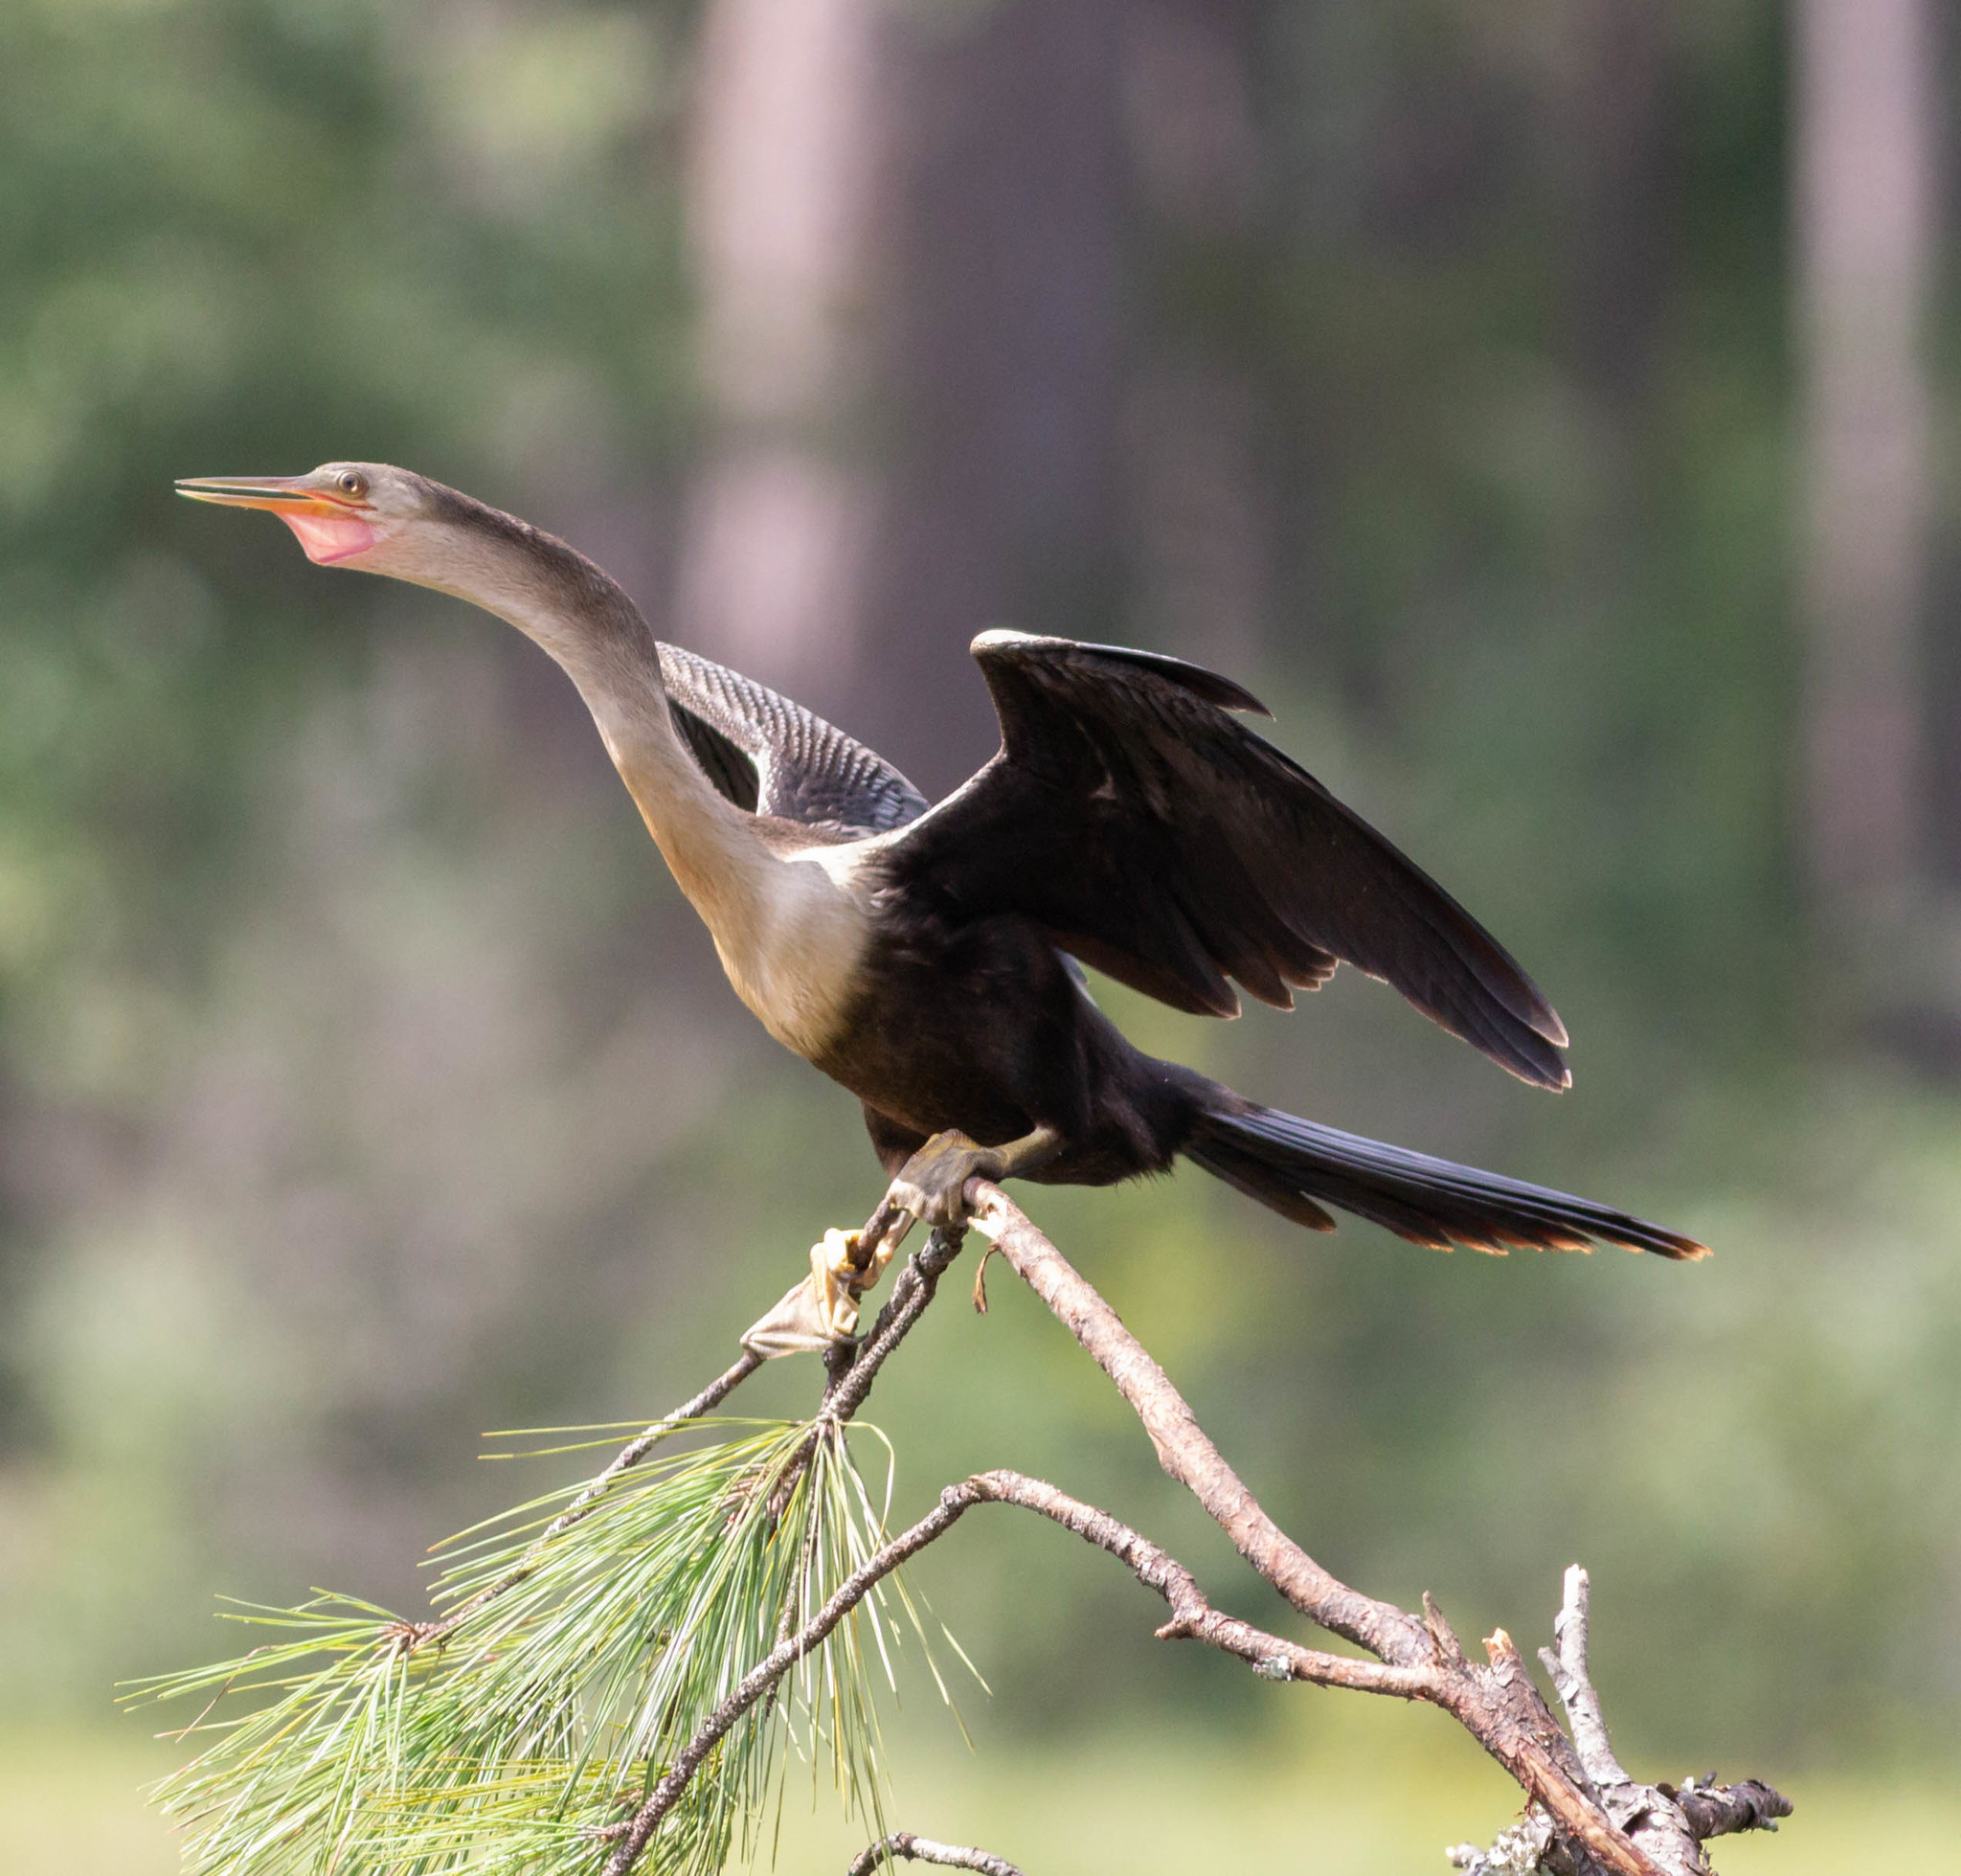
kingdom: Animalia
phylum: Chordata
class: Aves
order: Suliformes
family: Anhingidae
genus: Anhinga
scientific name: Anhinga anhinga
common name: Anhinga
